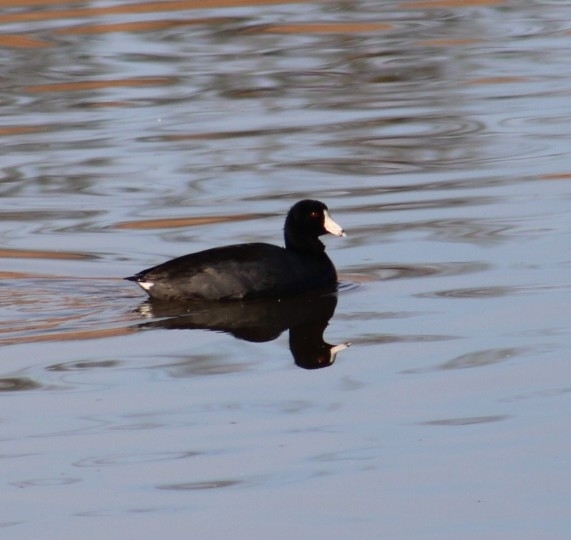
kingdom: Animalia
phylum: Chordata
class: Aves
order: Gruiformes
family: Rallidae
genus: Fulica
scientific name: Fulica americana
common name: American coot
